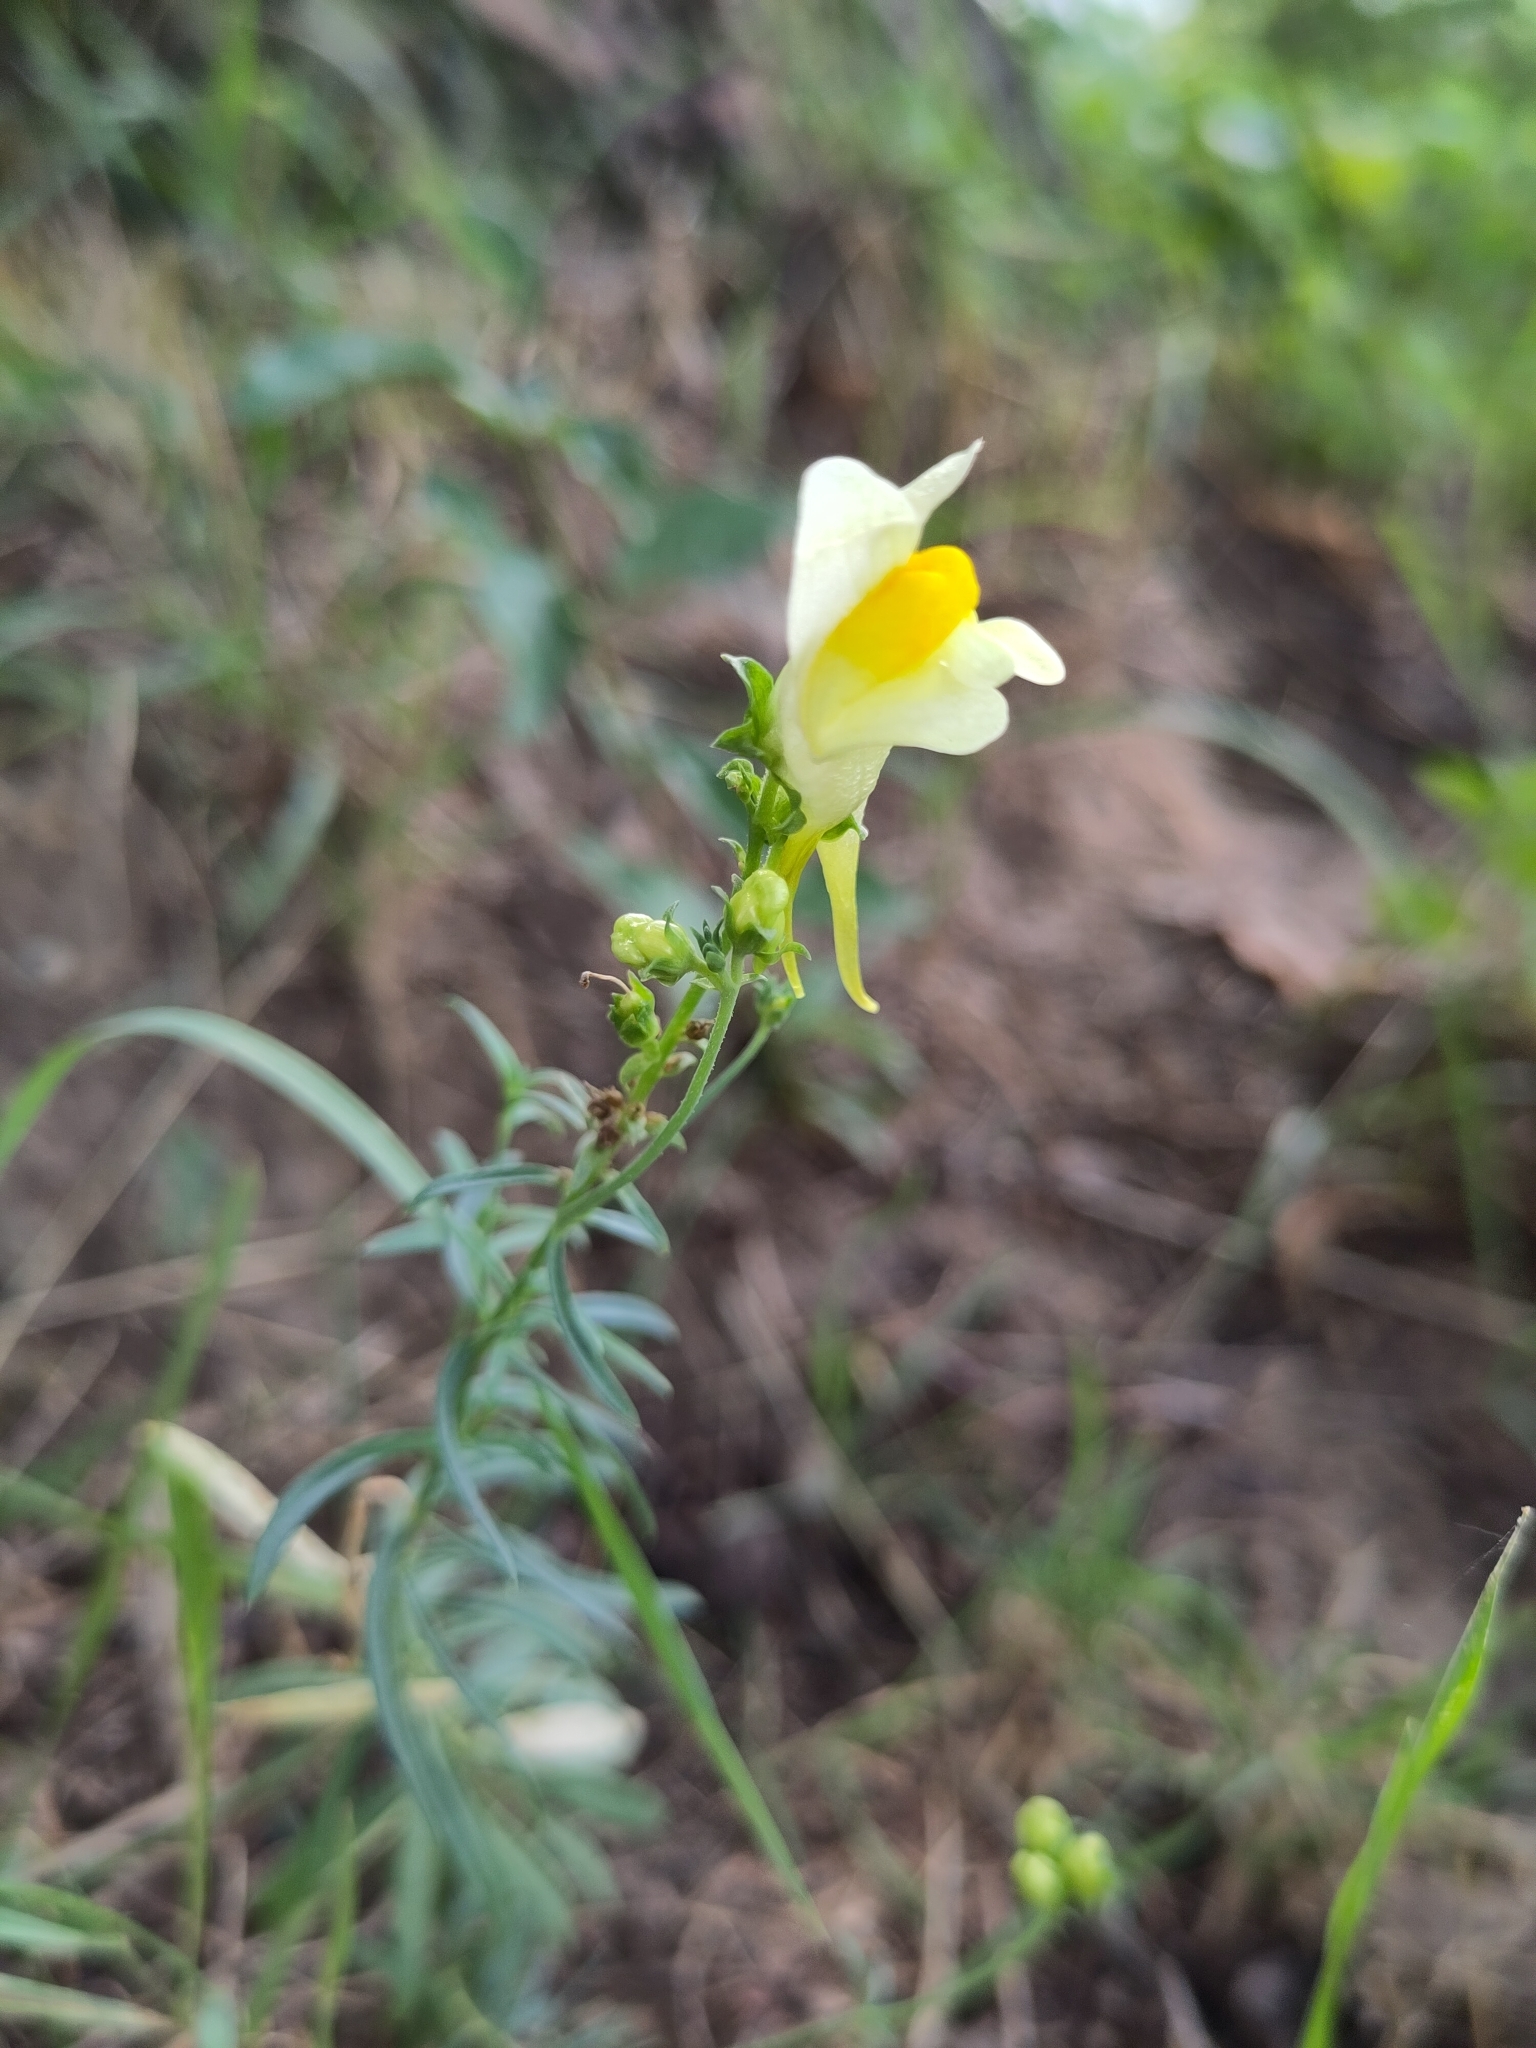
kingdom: Plantae
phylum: Tracheophyta
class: Magnoliopsida
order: Lamiales
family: Plantaginaceae
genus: Linaria
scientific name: Linaria vulgaris
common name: Butter and eggs
